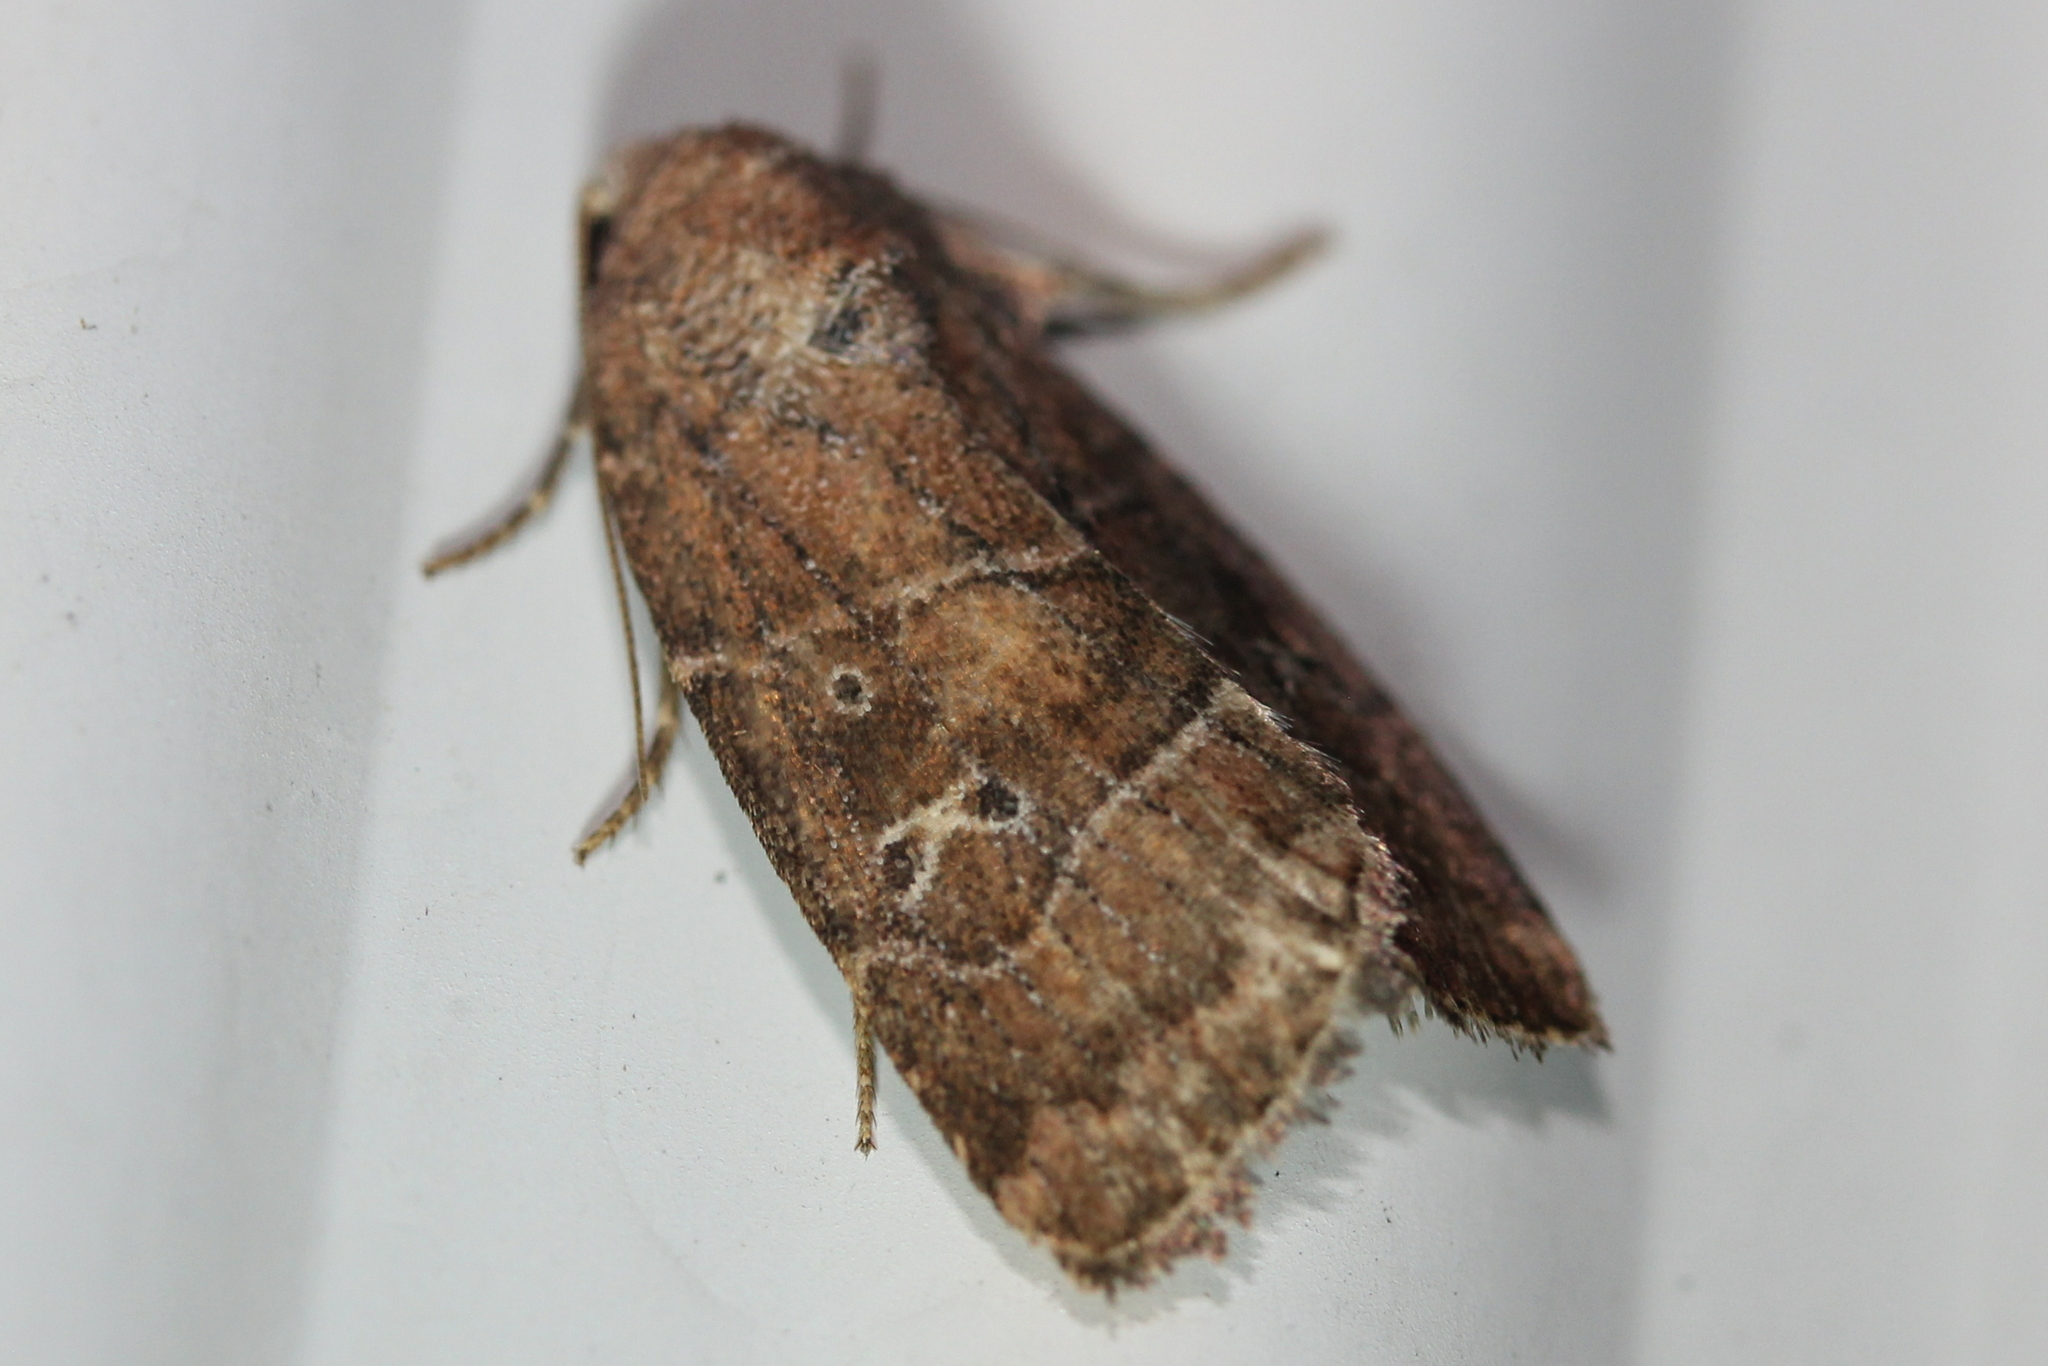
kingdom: Animalia
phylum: Arthropoda
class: Insecta
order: Lepidoptera
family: Noctuidae
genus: Elaphria
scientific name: Elaphria grata
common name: Grateful midget moth
